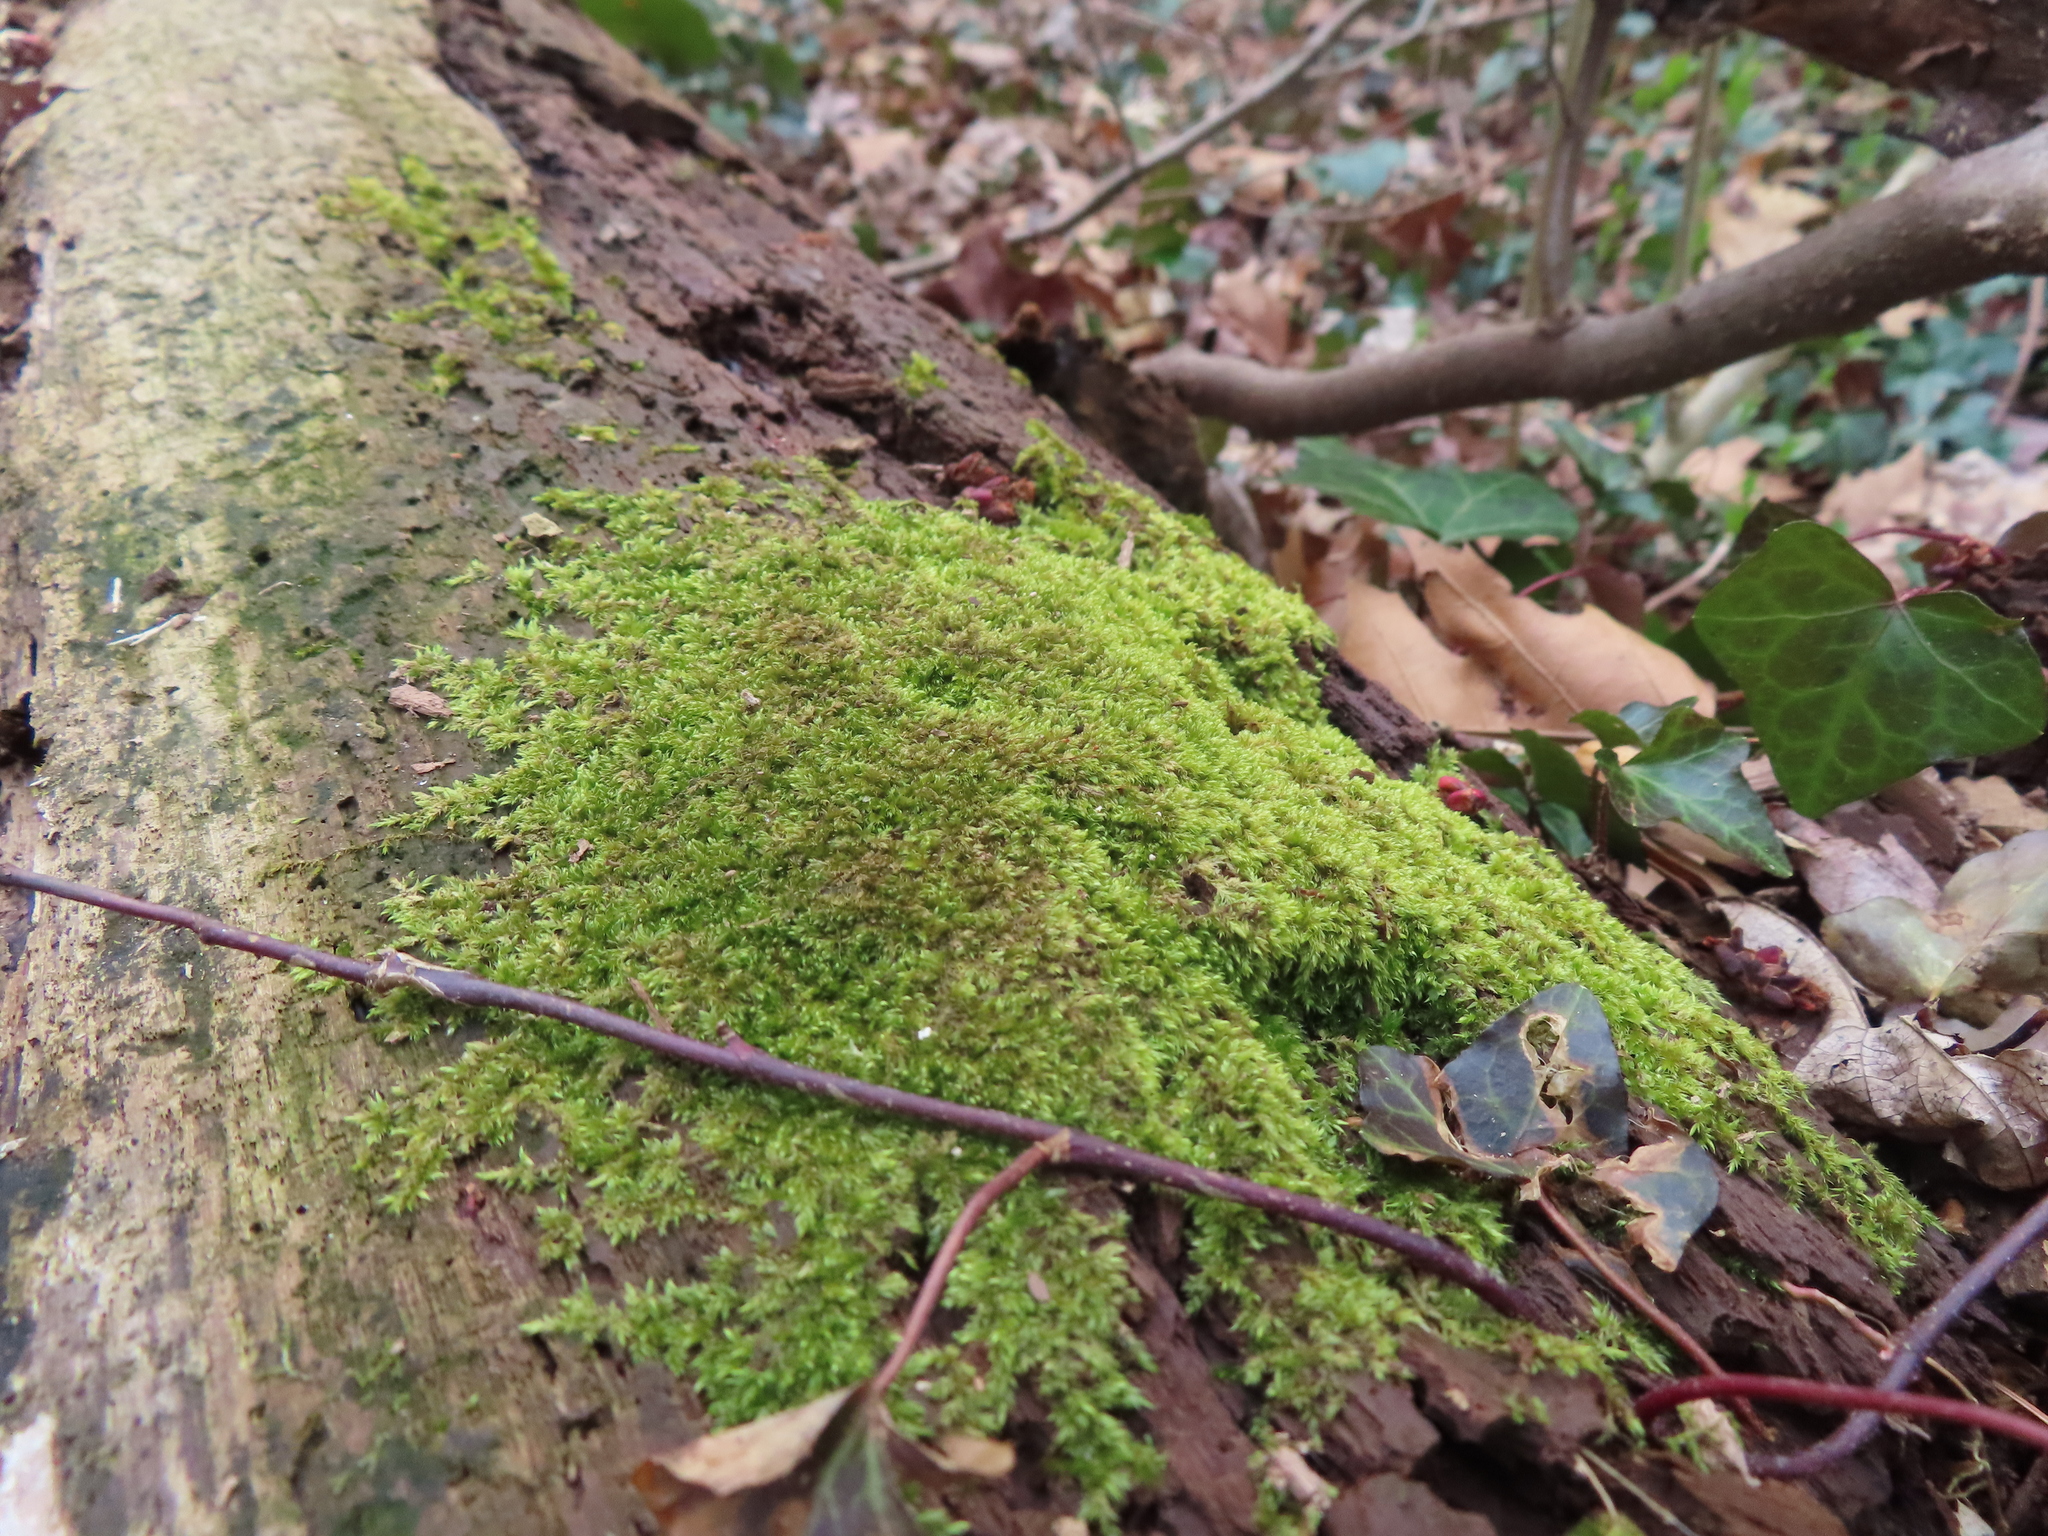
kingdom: Plantae
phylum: Bryophyta
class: Bryopsida
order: Hypnales
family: Pylaisiadelphaceae
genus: Platygyrium
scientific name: Platygyrium repens
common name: Flat-brocade moss
